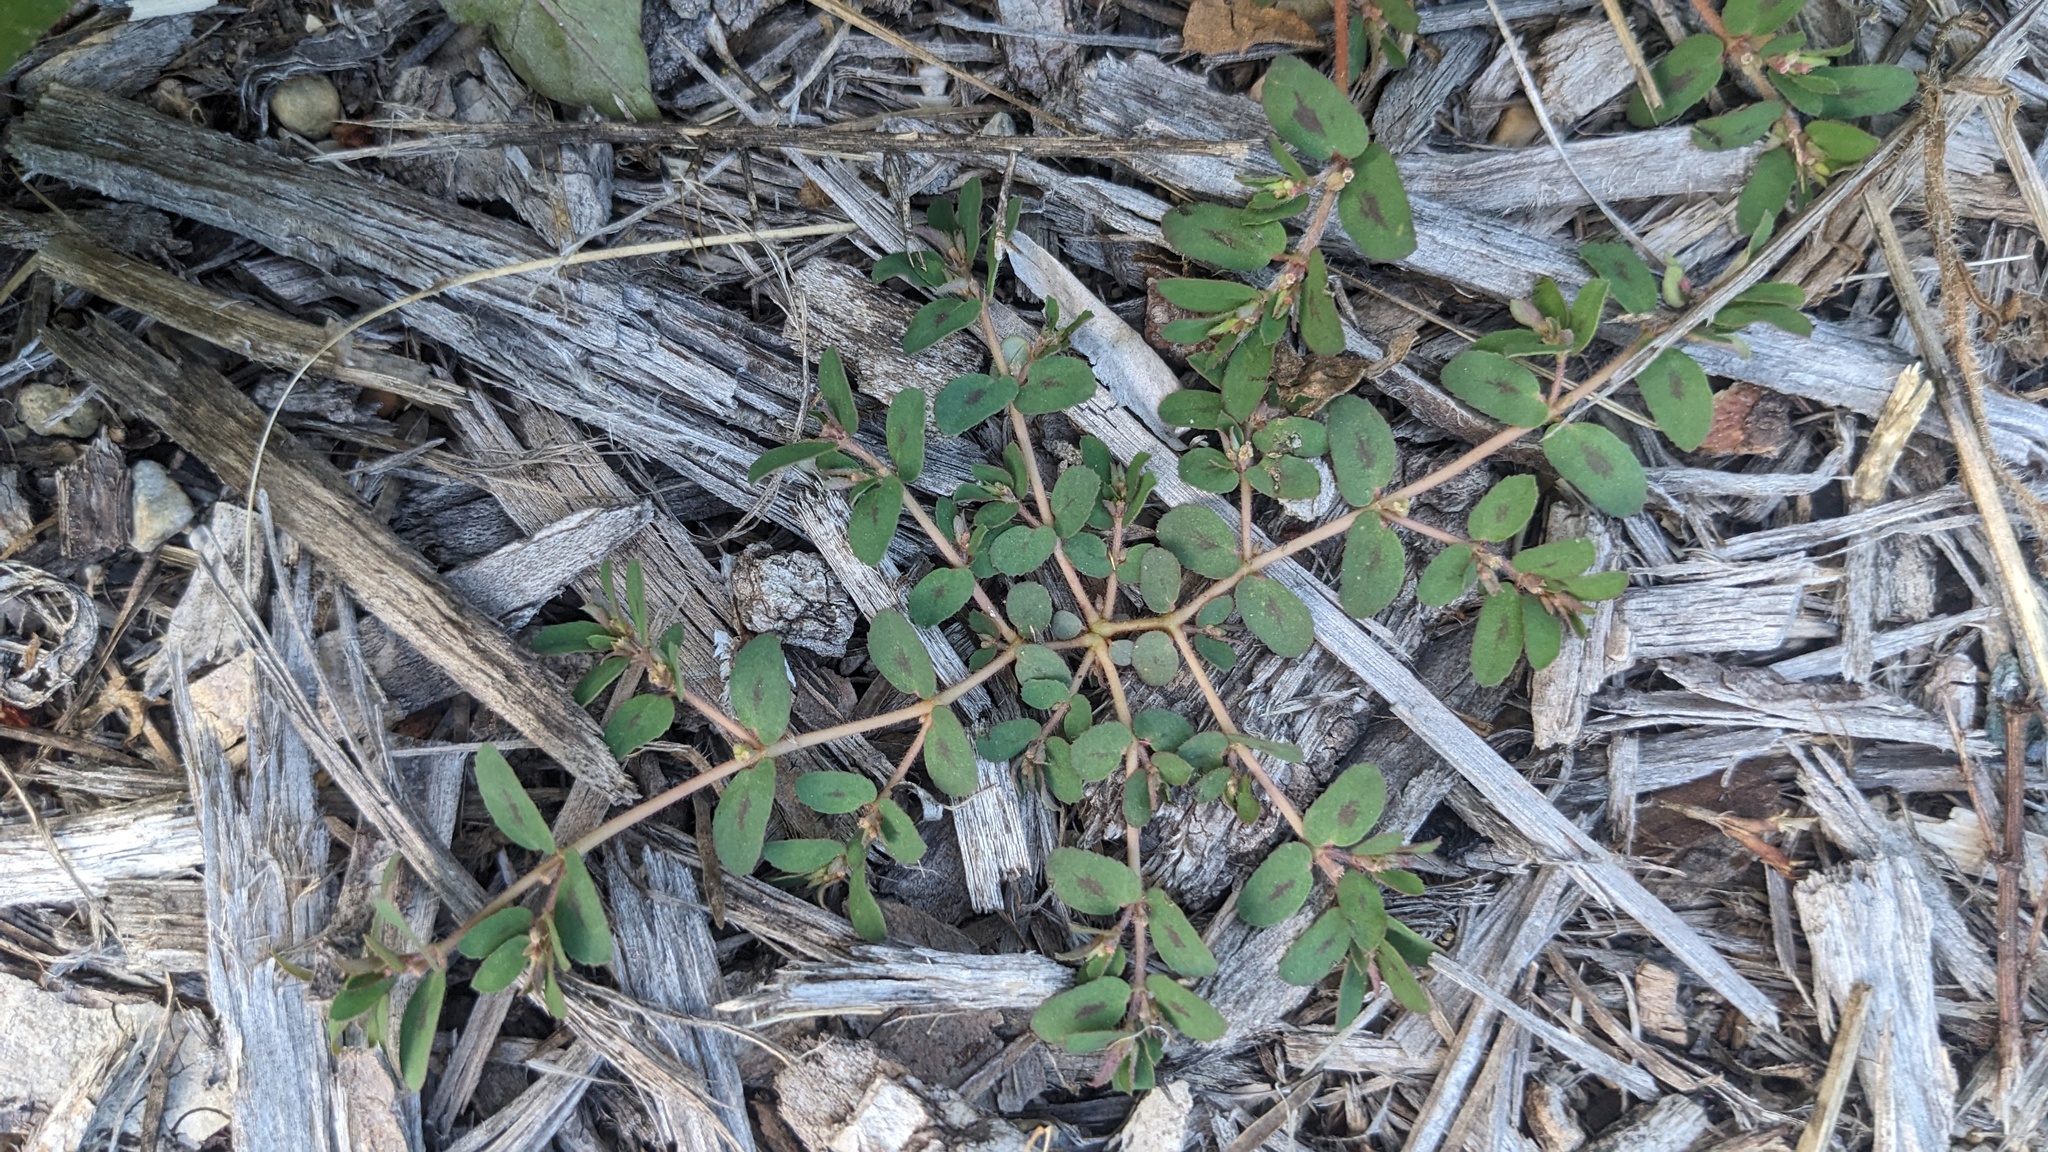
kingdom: Plantae
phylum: Tracheophyta
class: Magnoliopsida
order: Malpighiales
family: Euphorbiaceae
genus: Euphorbia
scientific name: Euphorbia maculata
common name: Spotted spurge
